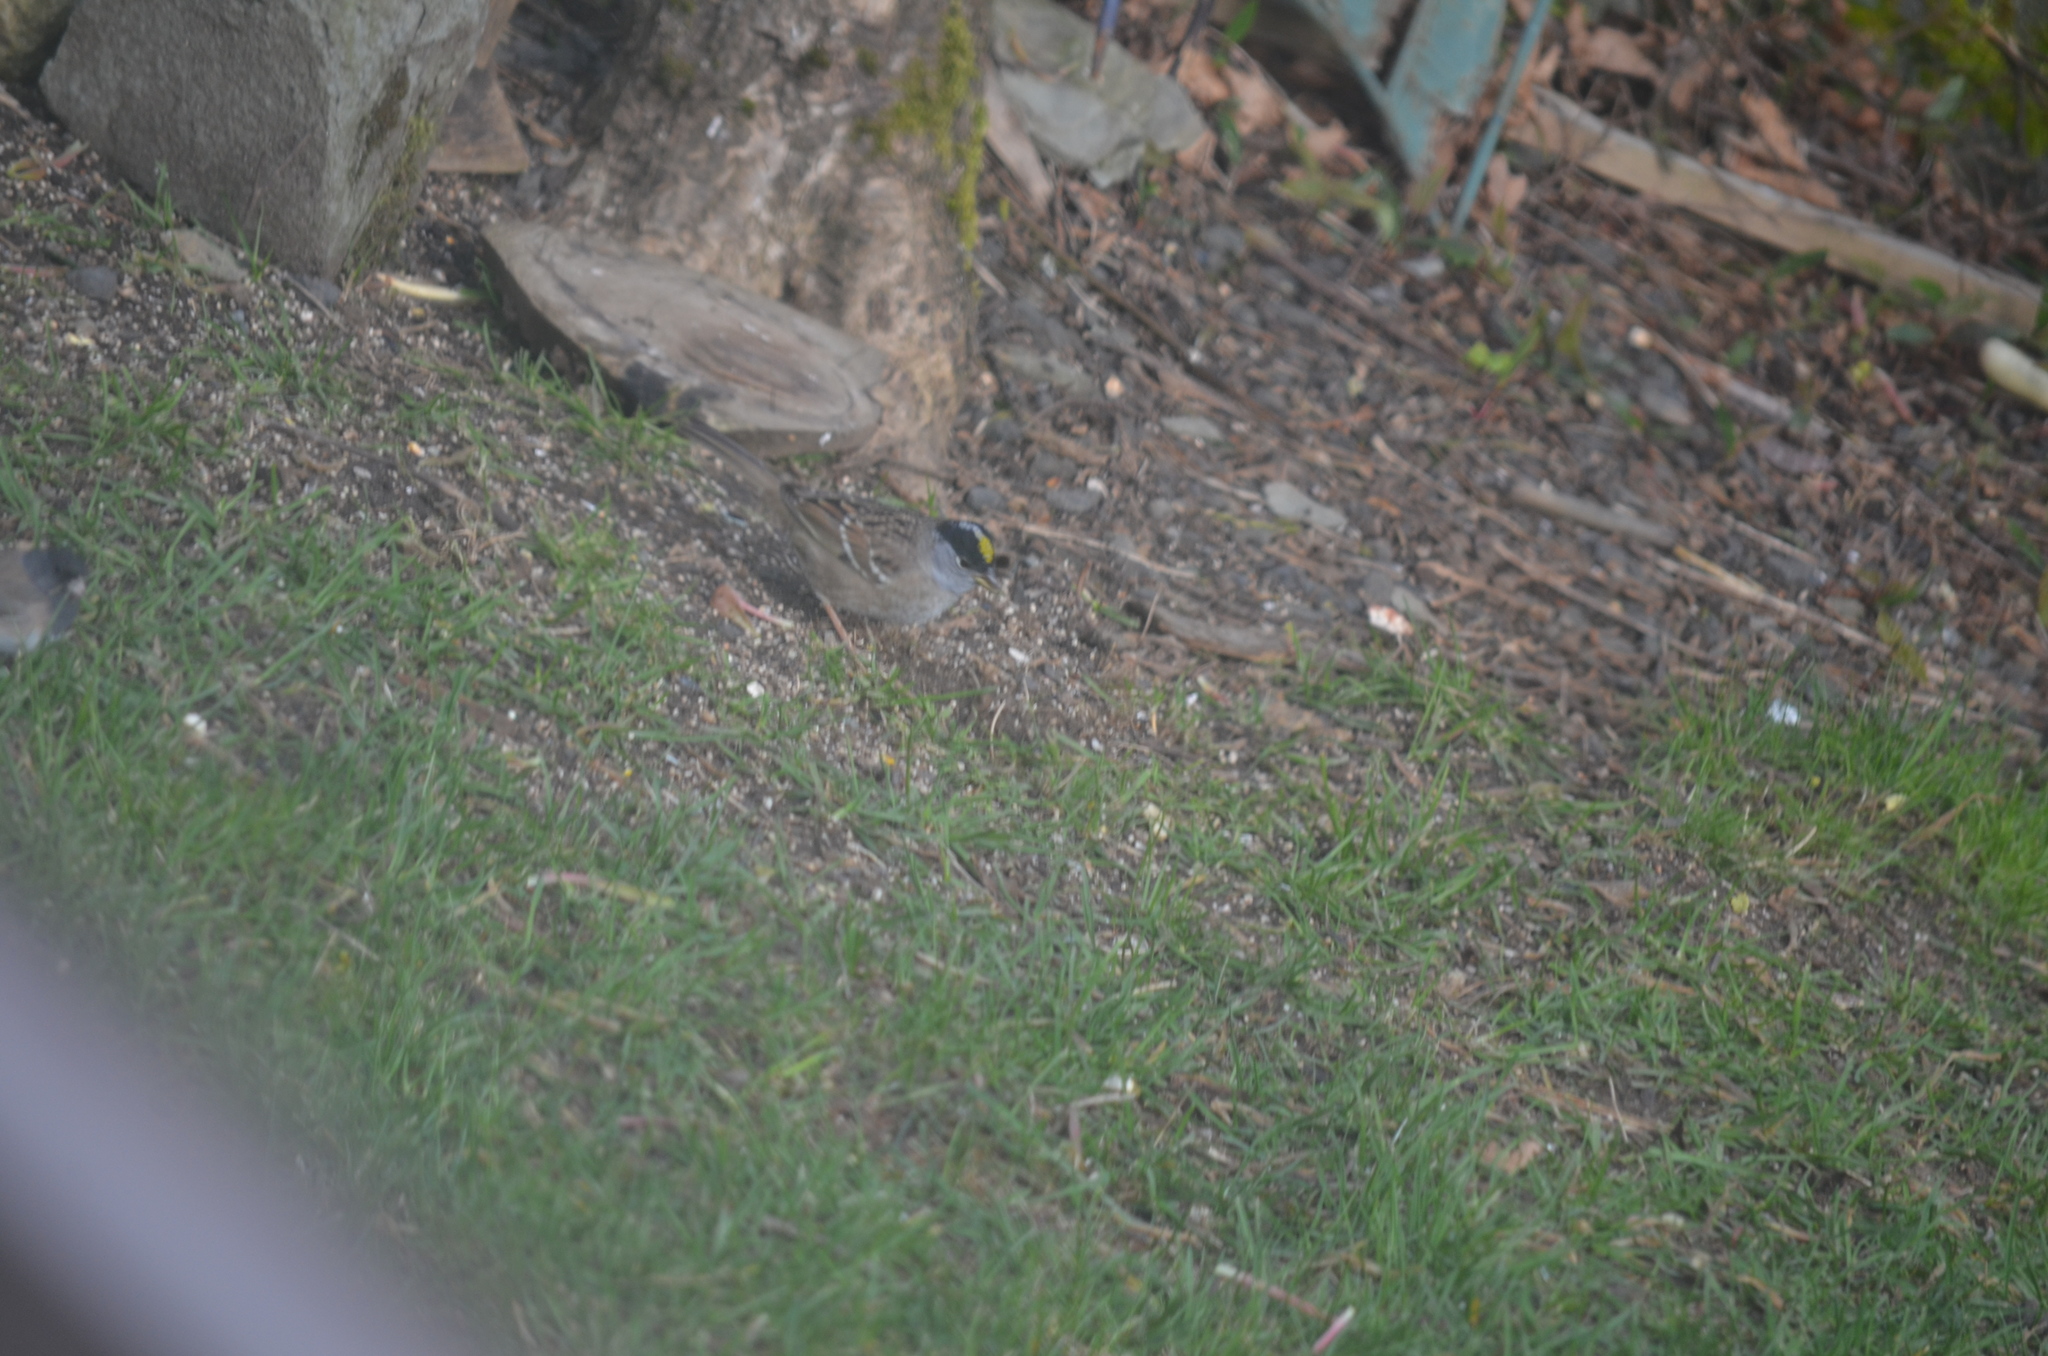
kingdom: Animalia
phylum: Chordata
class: Aves
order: Passeriformes
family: Passerellidae
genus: Zonotrichia
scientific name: Zonotrichia atricapilla
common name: Golden-crowned sparrow
